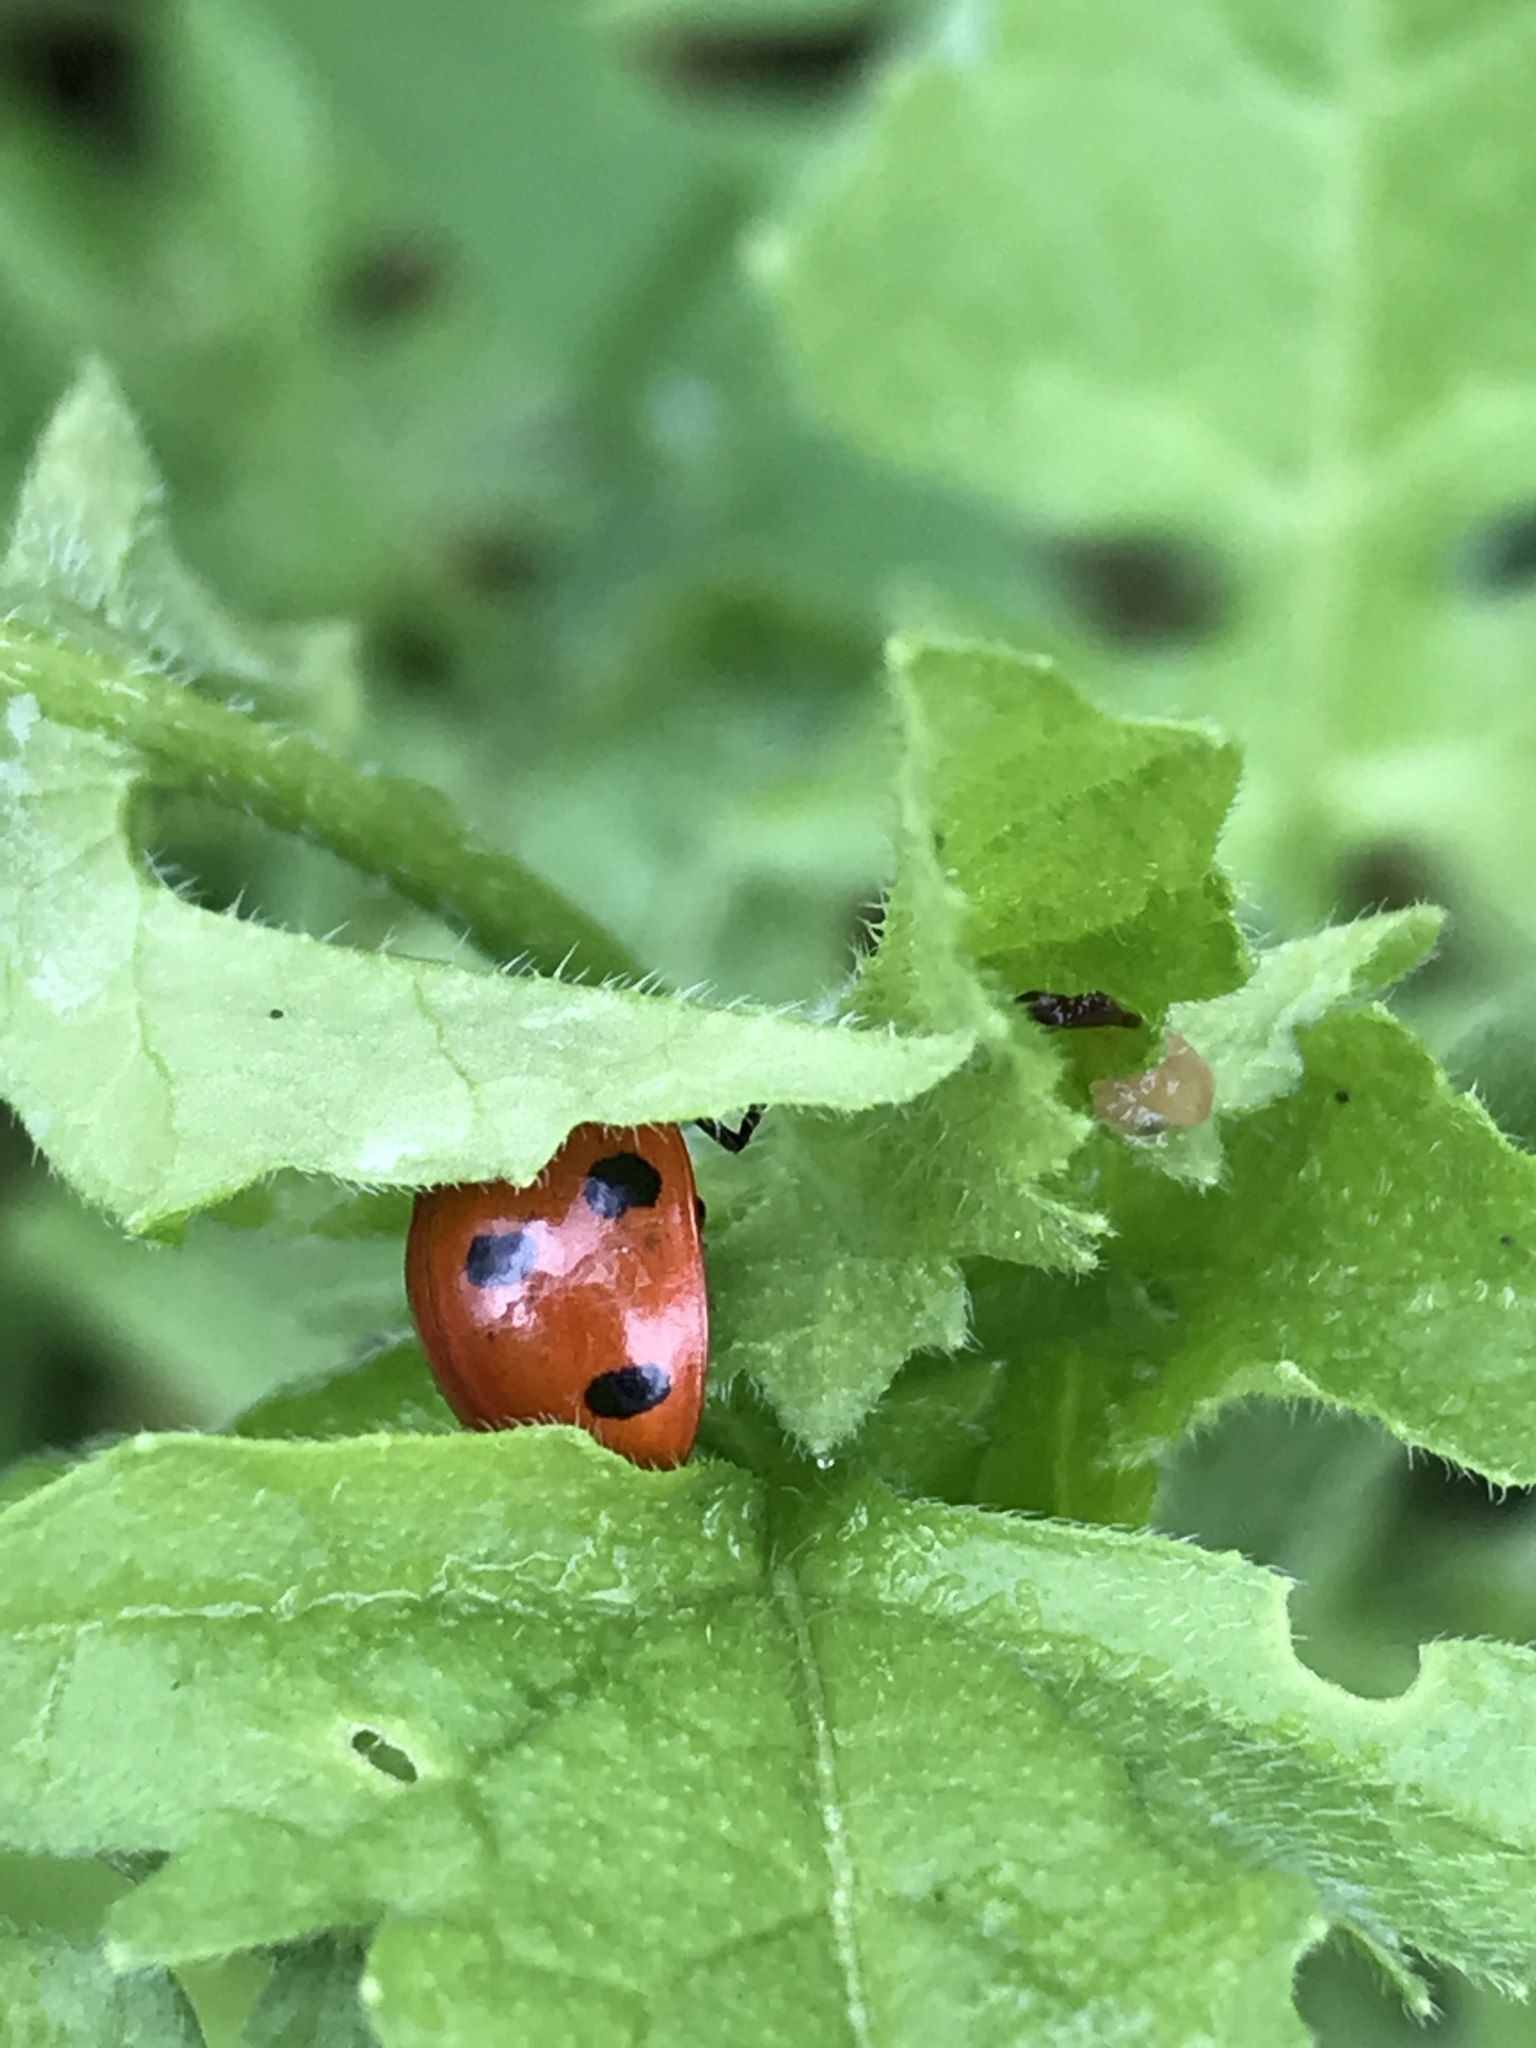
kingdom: Animalia
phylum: Arthropoda
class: Insecta
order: Coleoptera
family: Coccinellidae
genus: Coccinella
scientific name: Coccinella septempunctata
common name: Sevenspotted lady beetle
